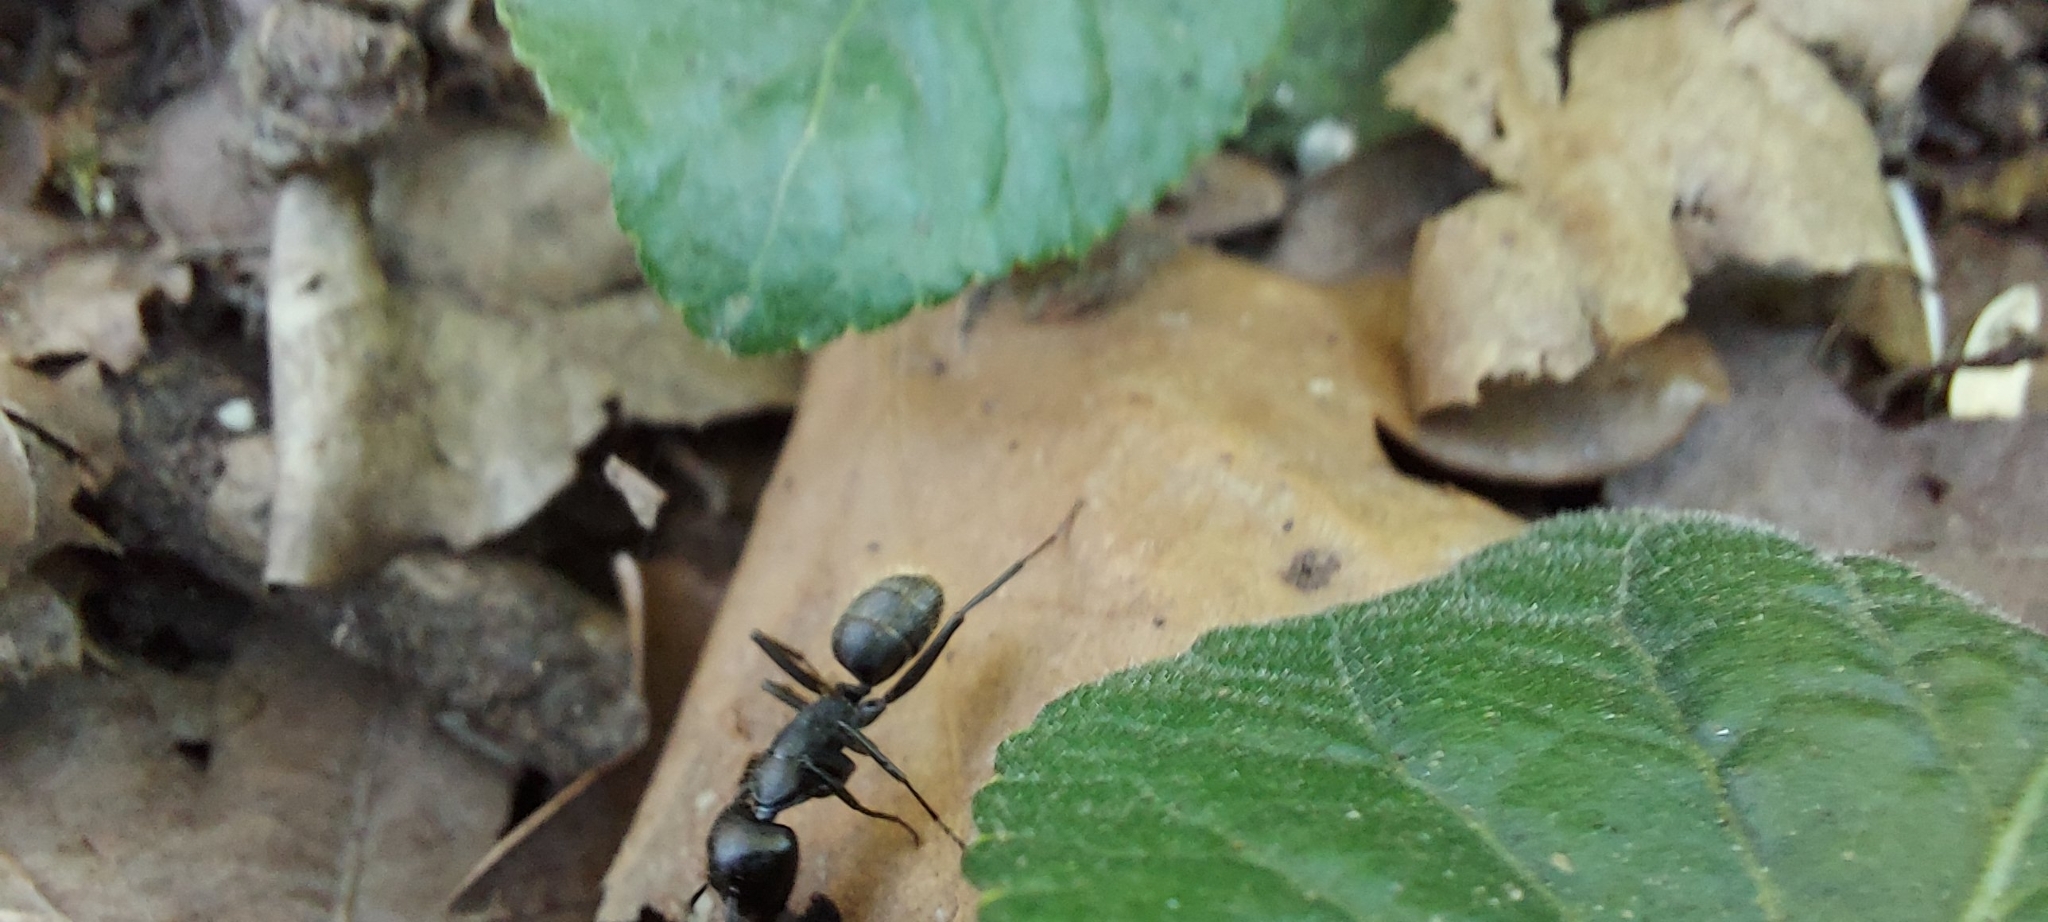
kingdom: Animalia
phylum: Arthropoda
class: Insecta
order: Hymenoptera
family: Formicidae
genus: Camponotus
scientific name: Camponotus vagus
